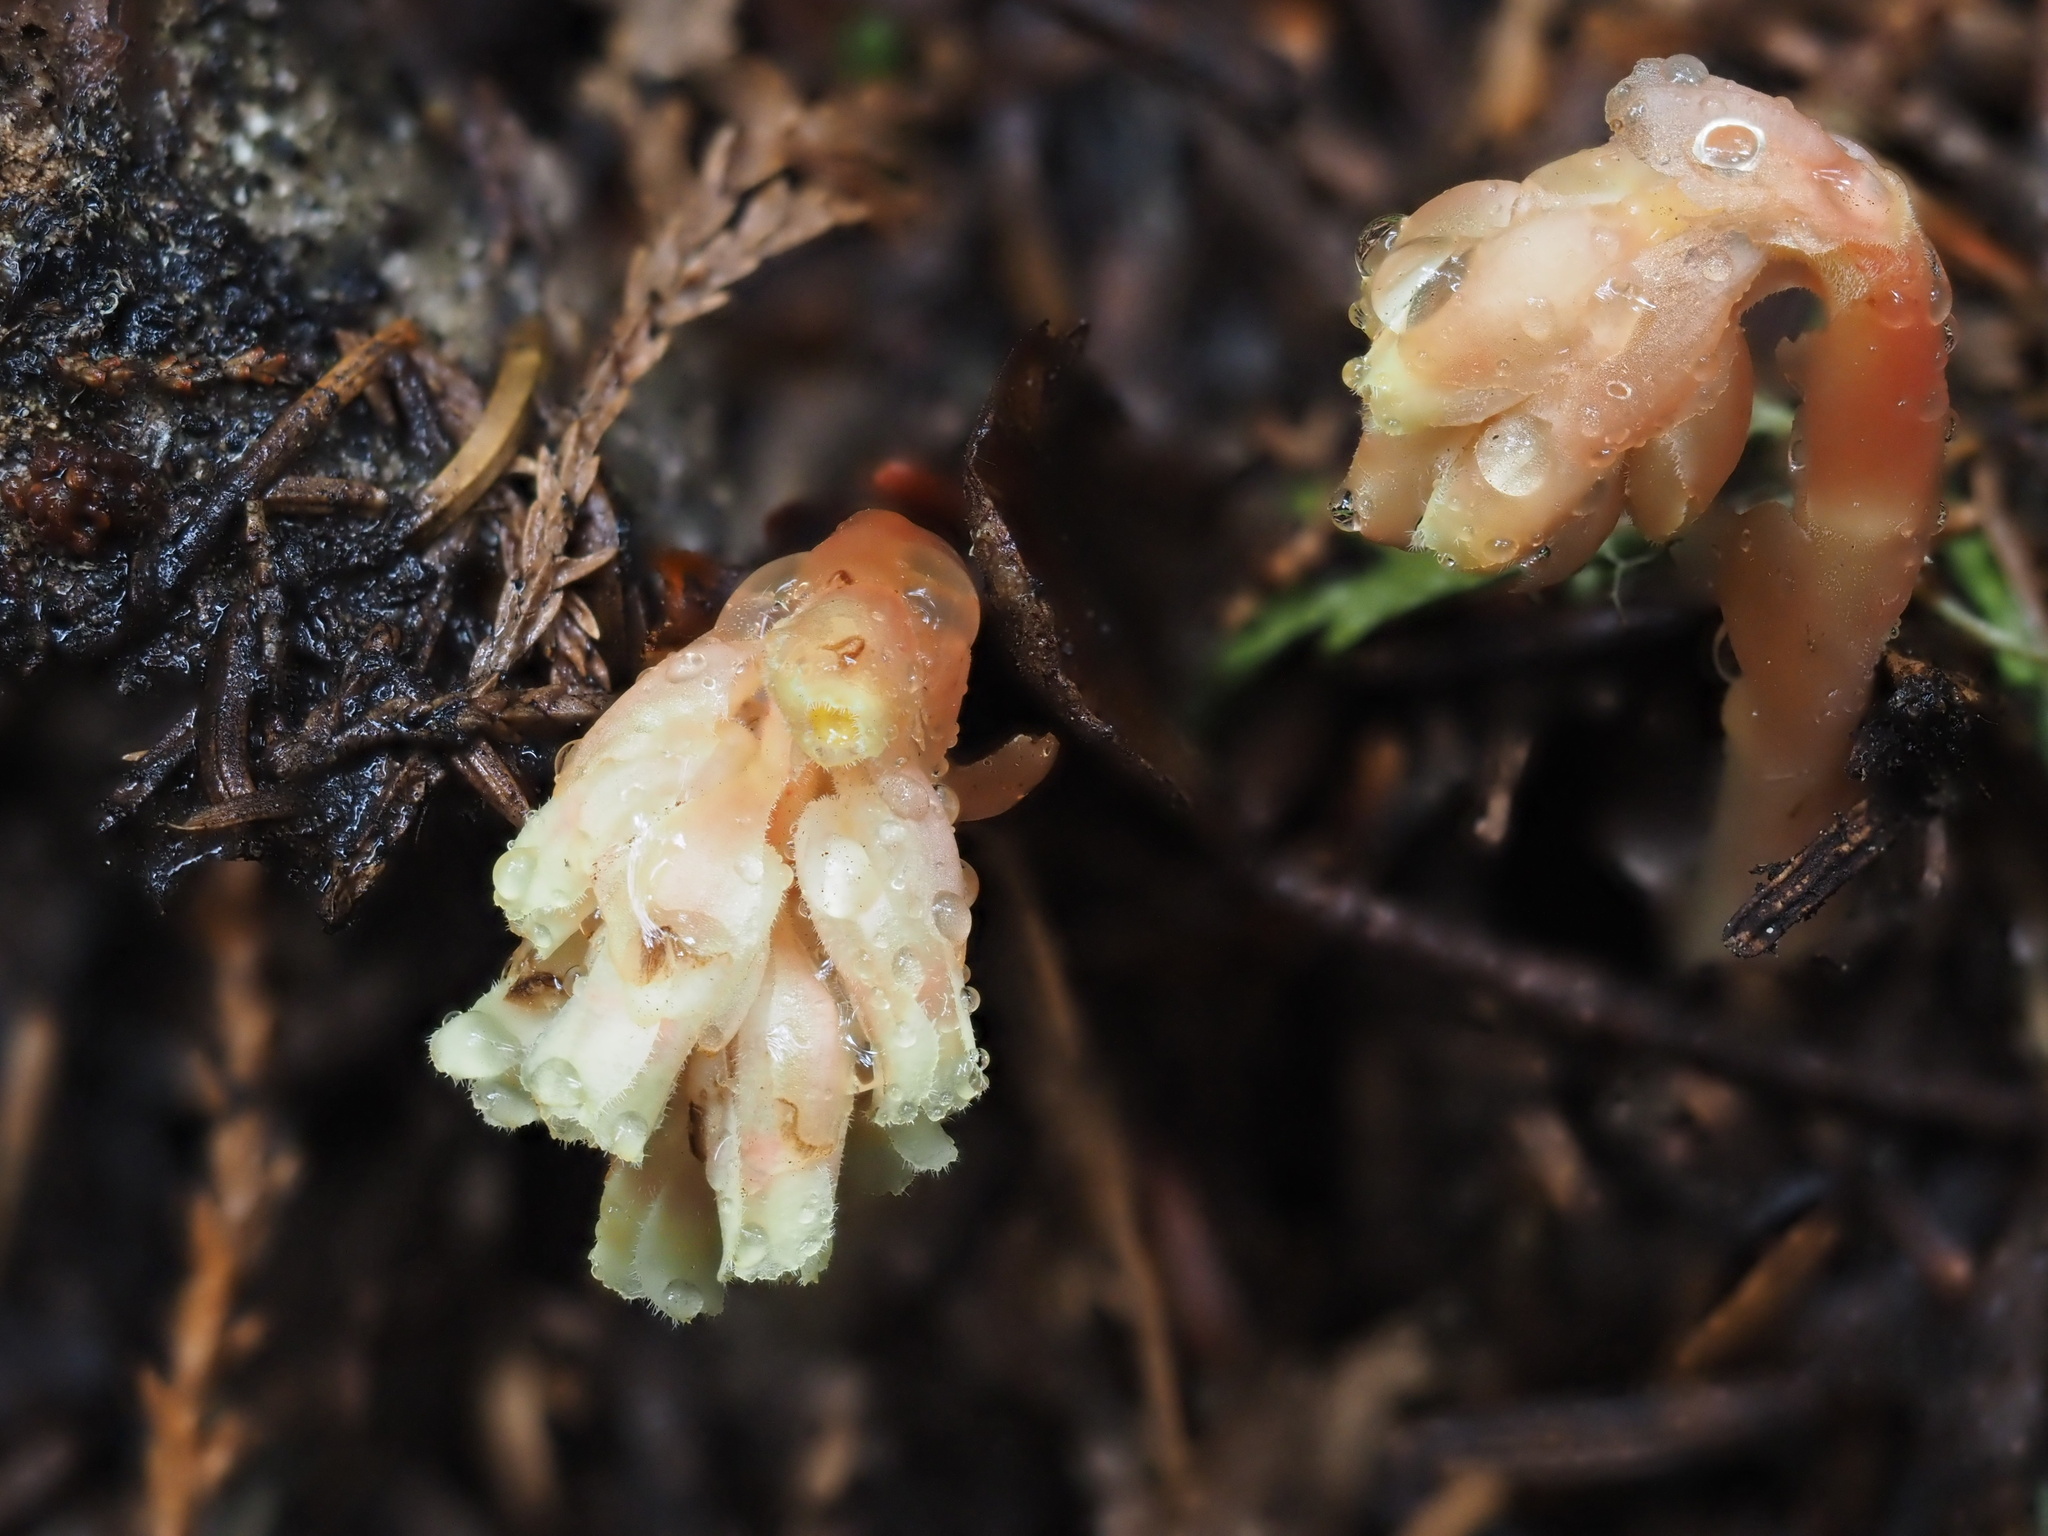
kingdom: Plantae
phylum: Tracheophyta
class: Magnoliopsida
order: Ericales
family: Ericaceae
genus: Hypopitys
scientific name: Hypopitys monotropa
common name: Yellow bird's-nest
